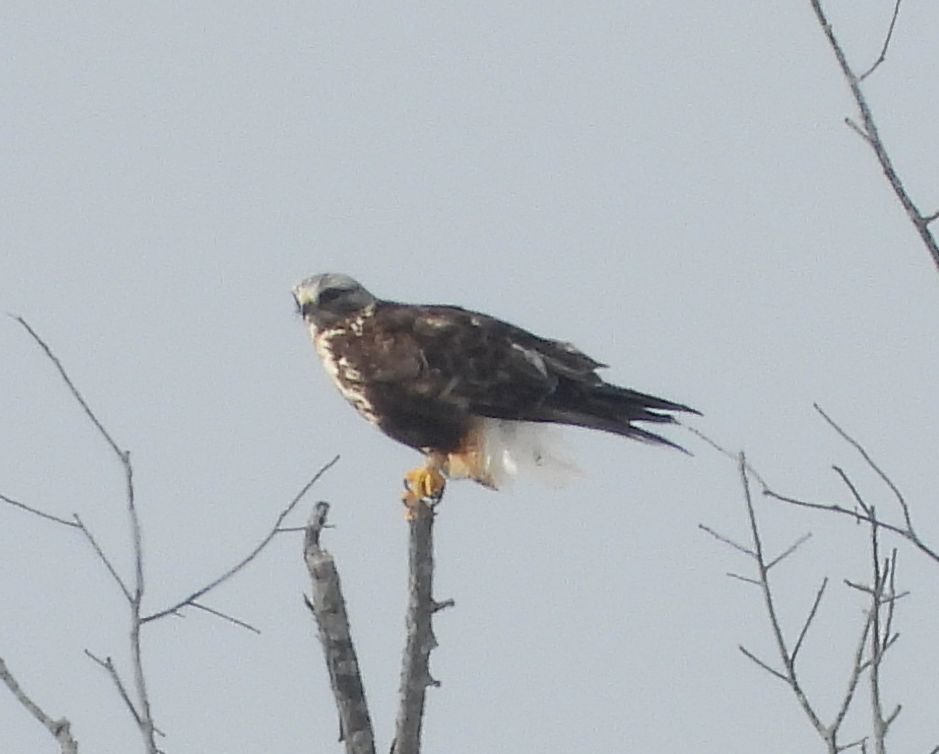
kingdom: Animalia
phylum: Chordata
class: Aves
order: Accipitriformes
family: Accipitridae
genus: Buteo
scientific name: Buteo lagopus
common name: Rough-legged buzzard
